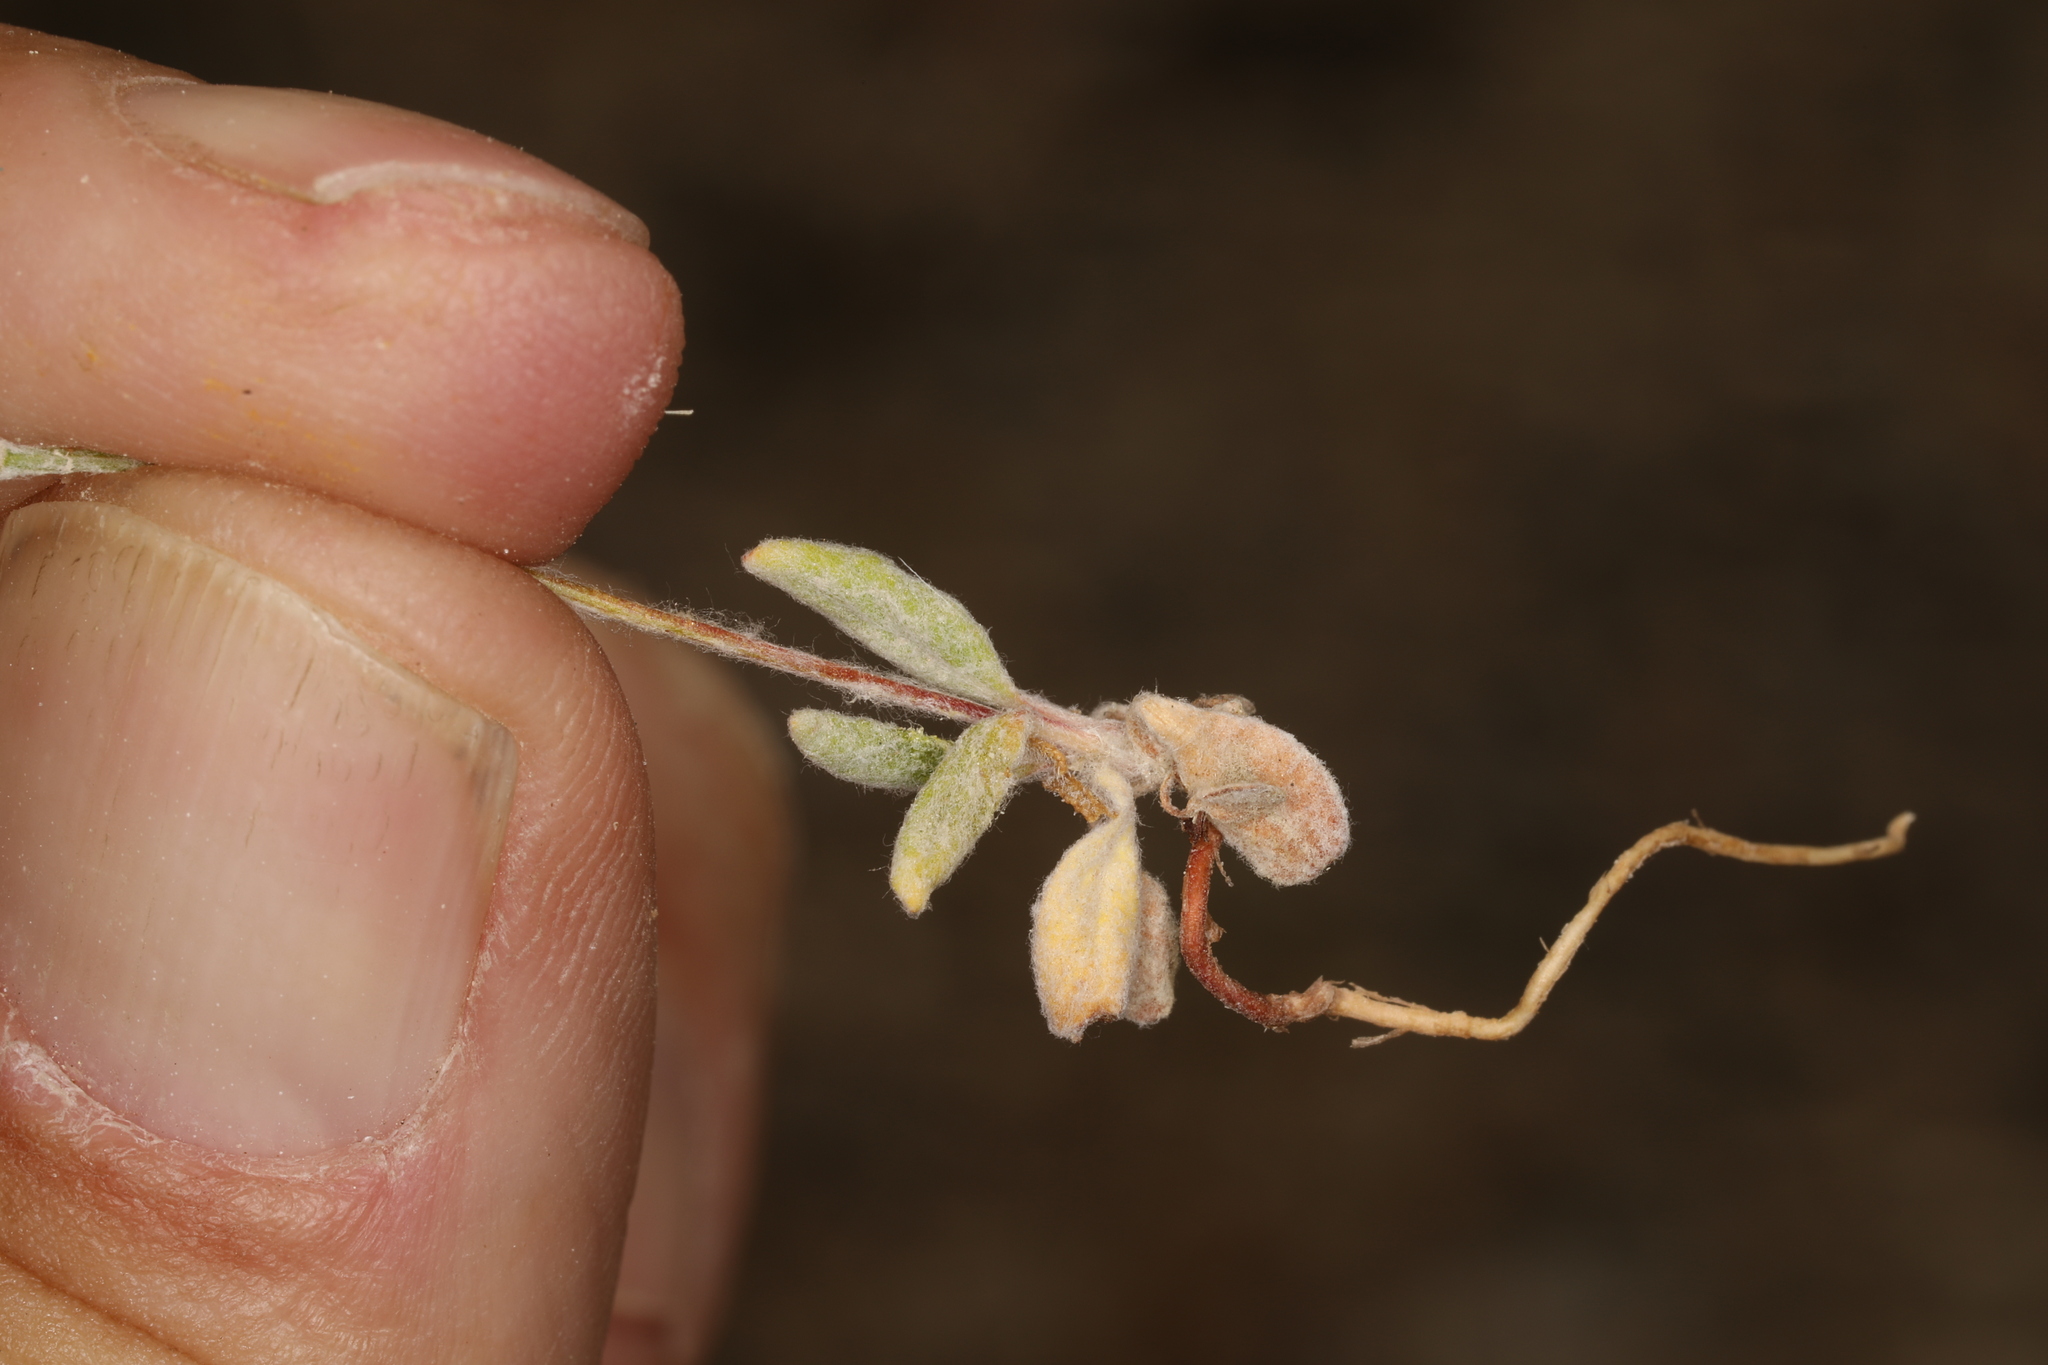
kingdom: Plantae
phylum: Tracheophyta
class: Magnoliopsida
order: Caryophyllales
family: Polygonaceae
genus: Eriogonum
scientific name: Eriogonum maculatum
